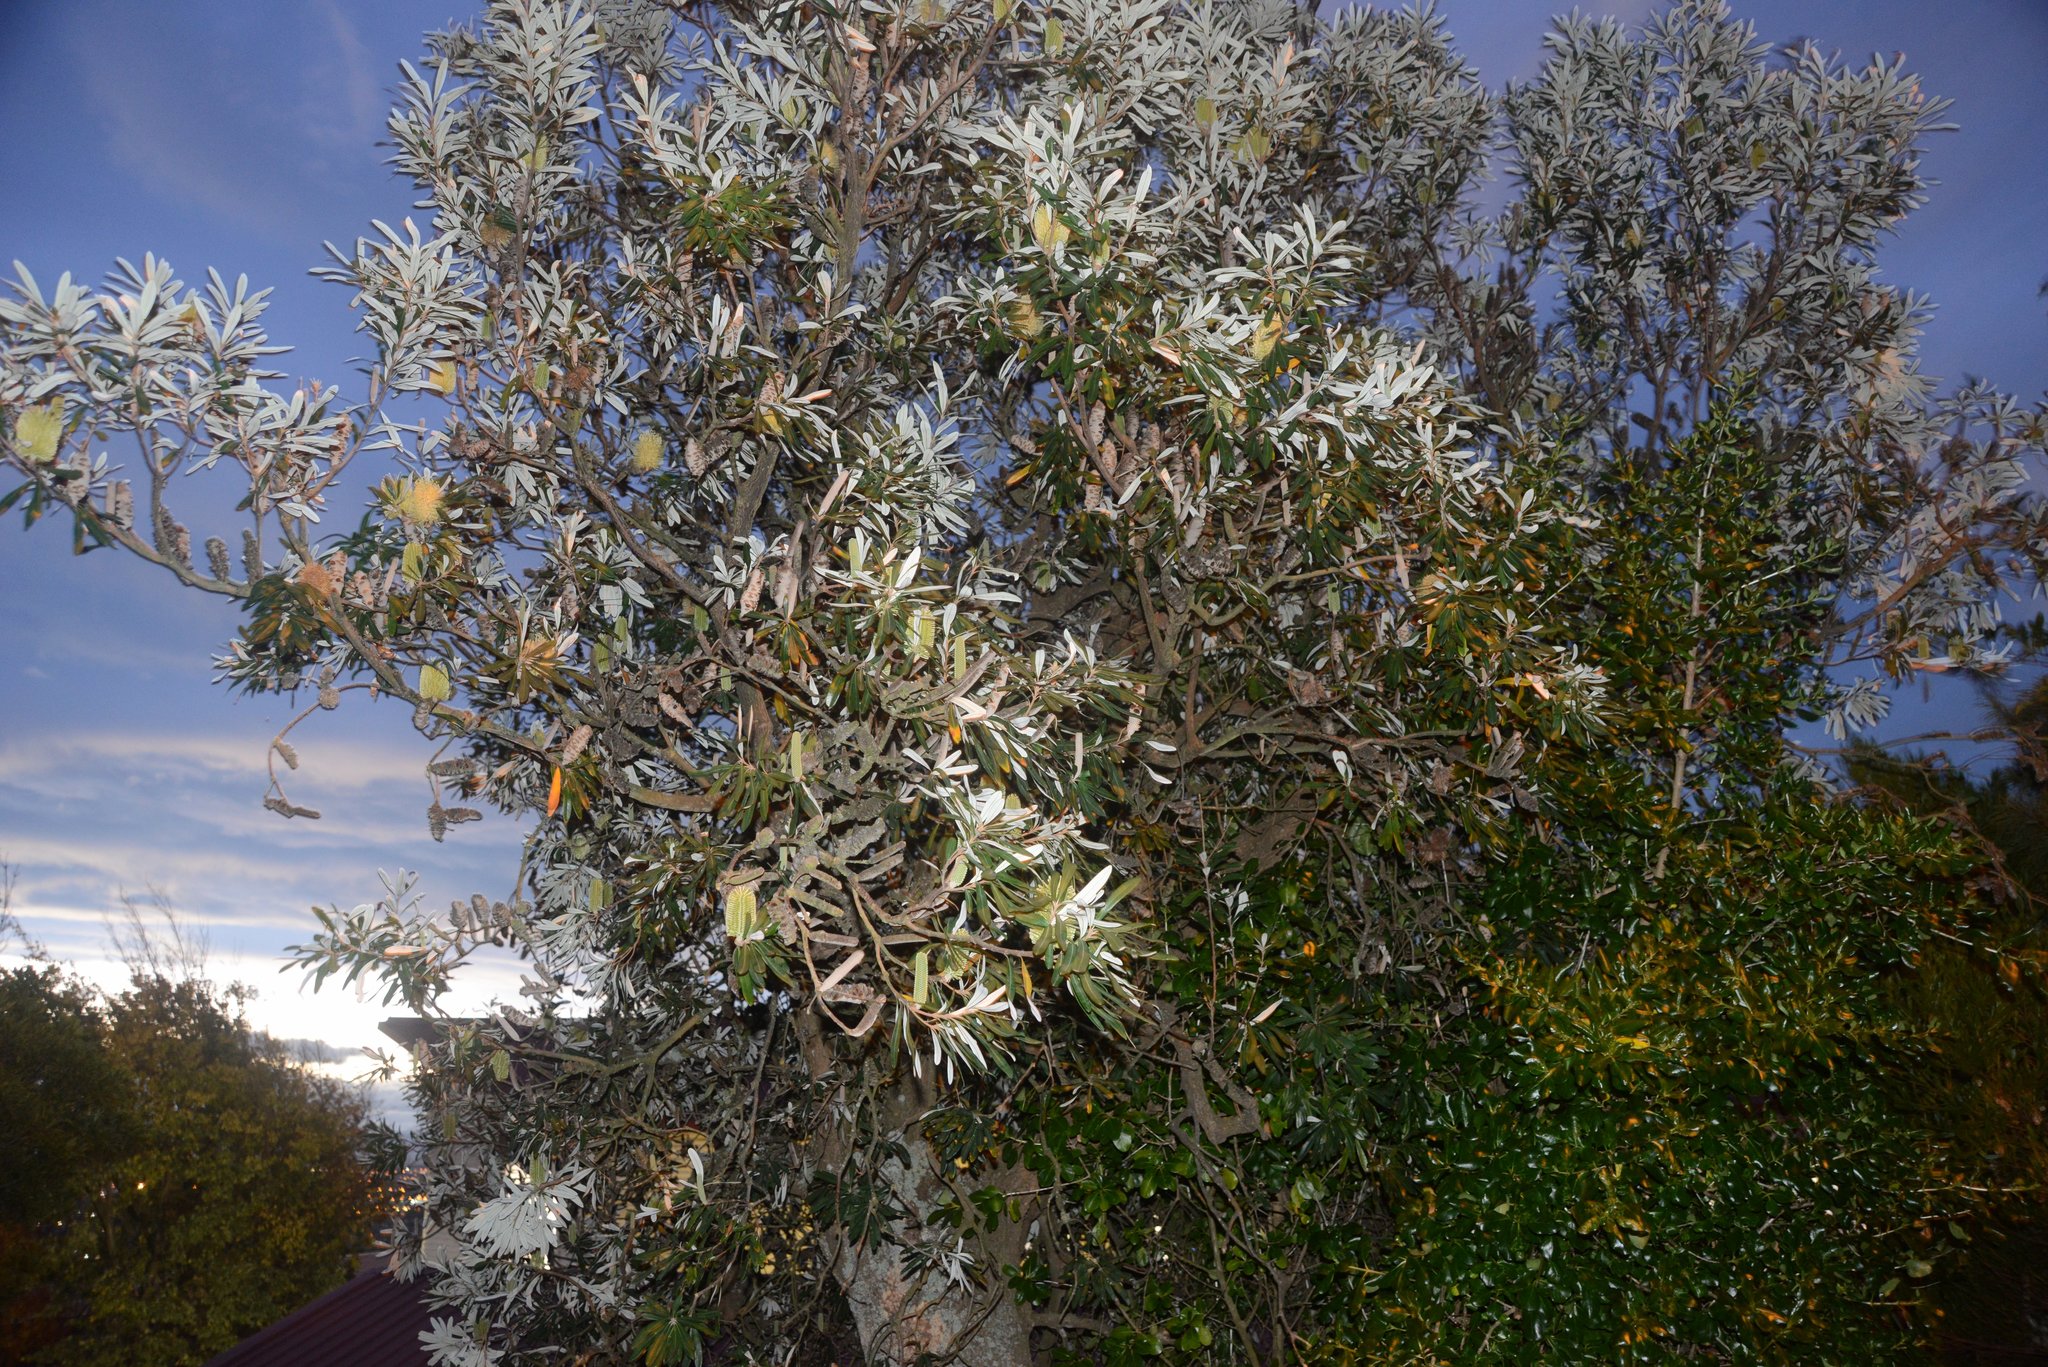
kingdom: Plantae
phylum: Tracheophyta
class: Magnoliopsida
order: Proteales
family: Proteaceae
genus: Banksia
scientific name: Banksia integrifolia
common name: White-honeysuckle
